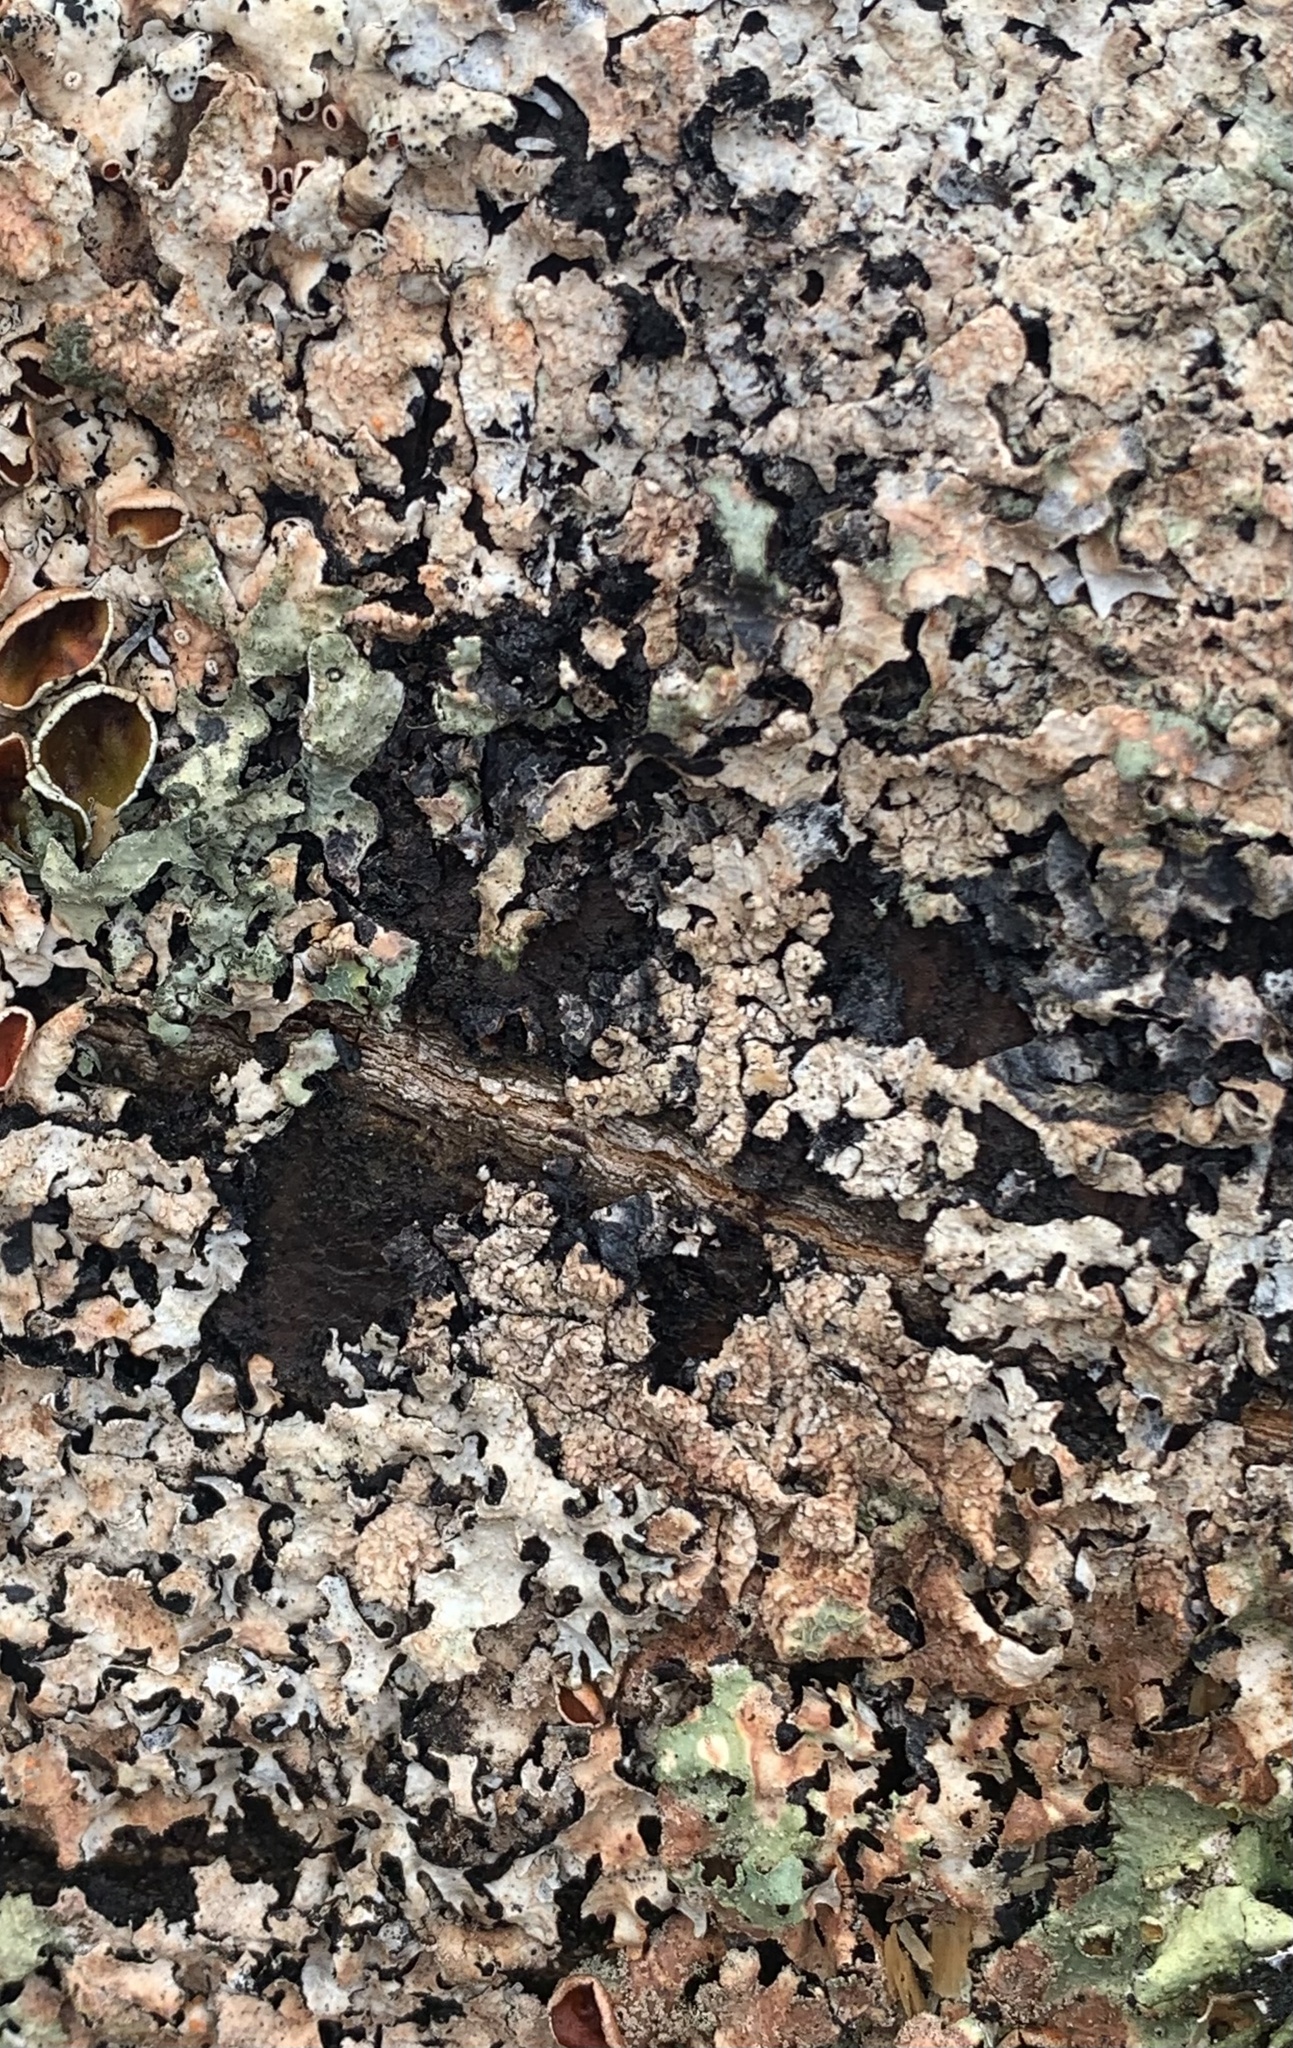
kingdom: Fungi
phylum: Ascomycota
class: Lecanoromycetes
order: Lecanorales
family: Parmeliaceae
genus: Parmelia
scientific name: Parmelia squarrosa
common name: Bottle brush shield lichen
